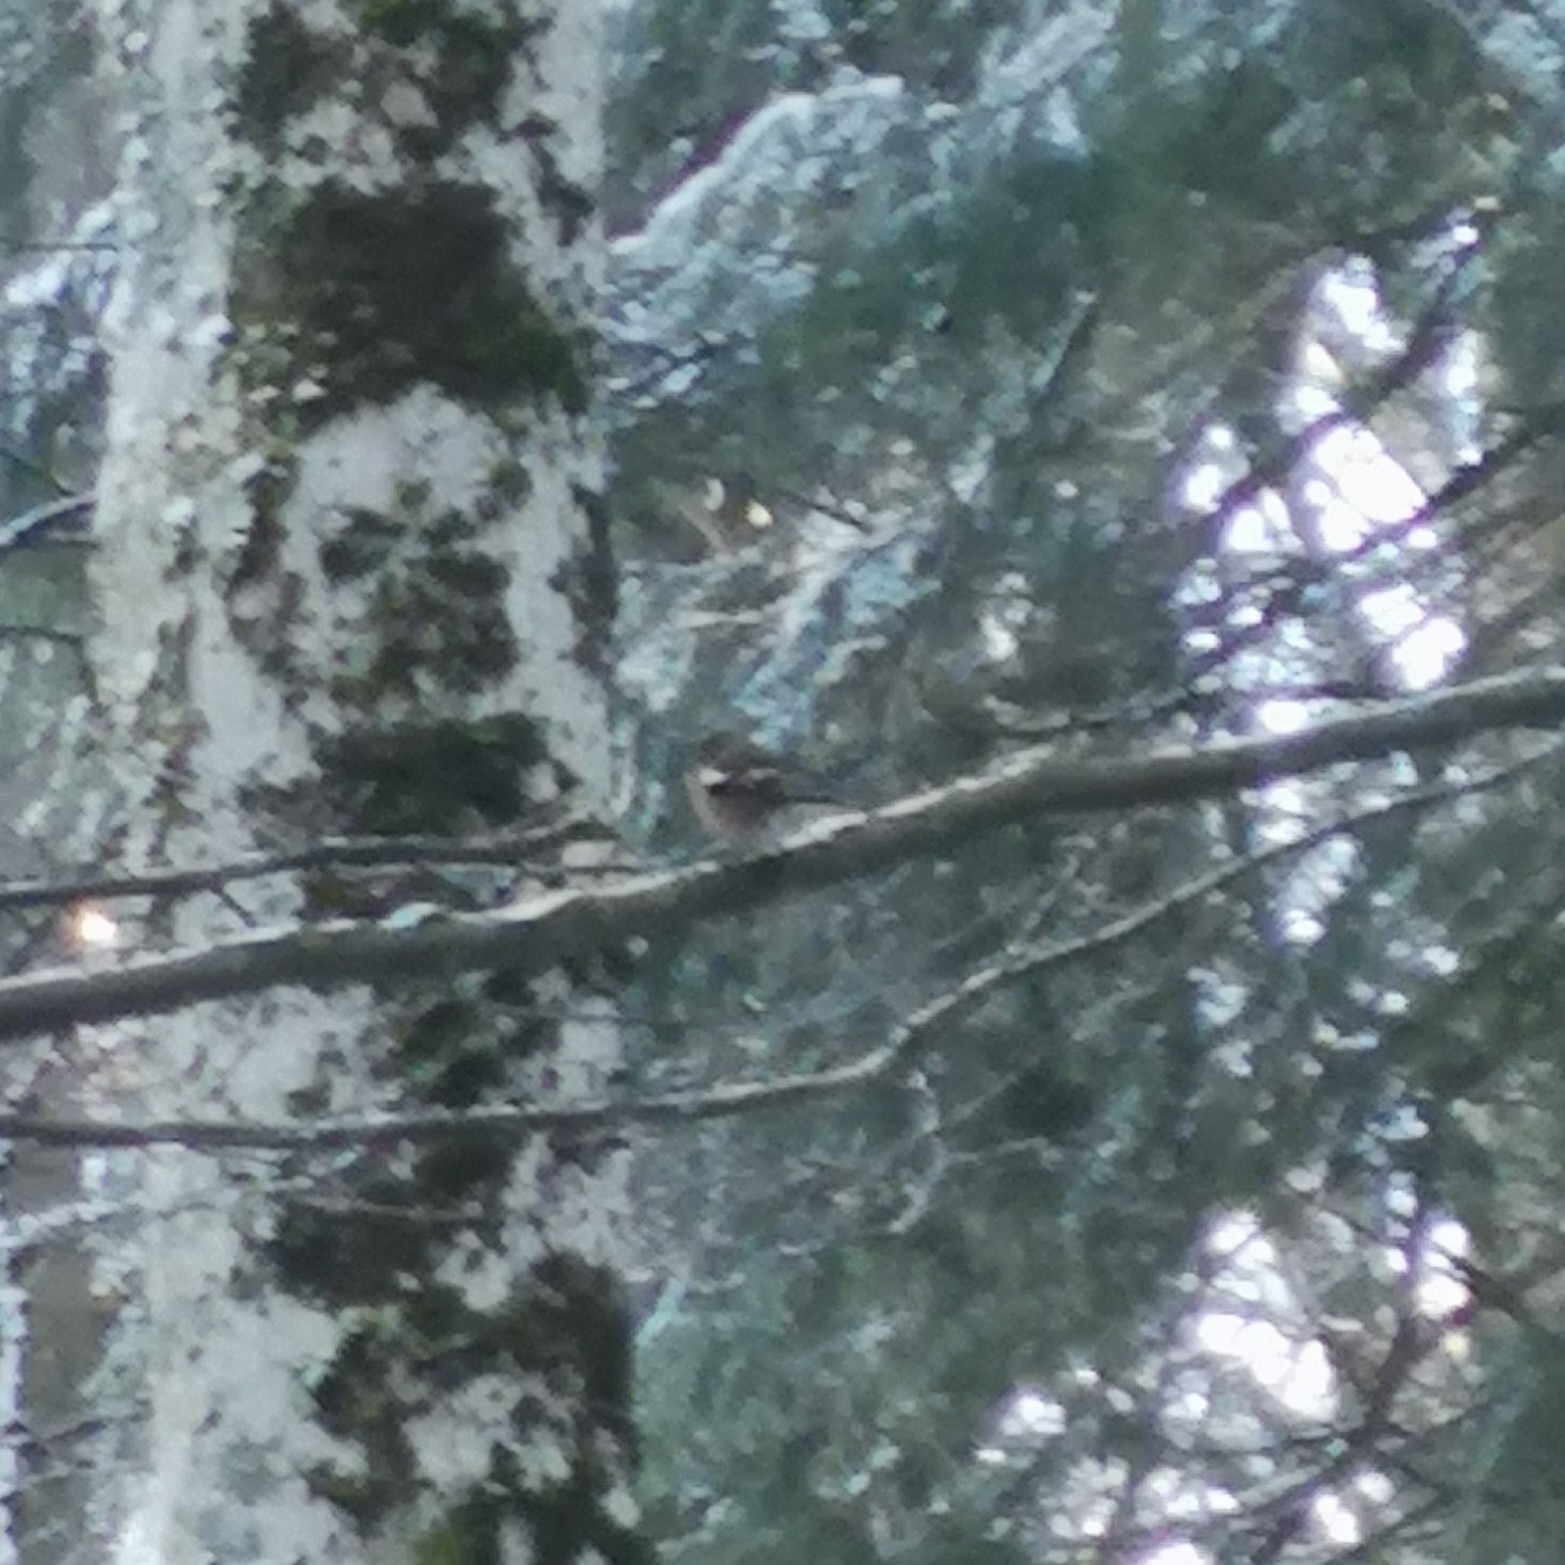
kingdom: Animalia
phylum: Chordata
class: Aves
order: Passeriformes
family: Fringillidae
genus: Fringilla
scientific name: Fringilla coelebs
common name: Common chaffinch
